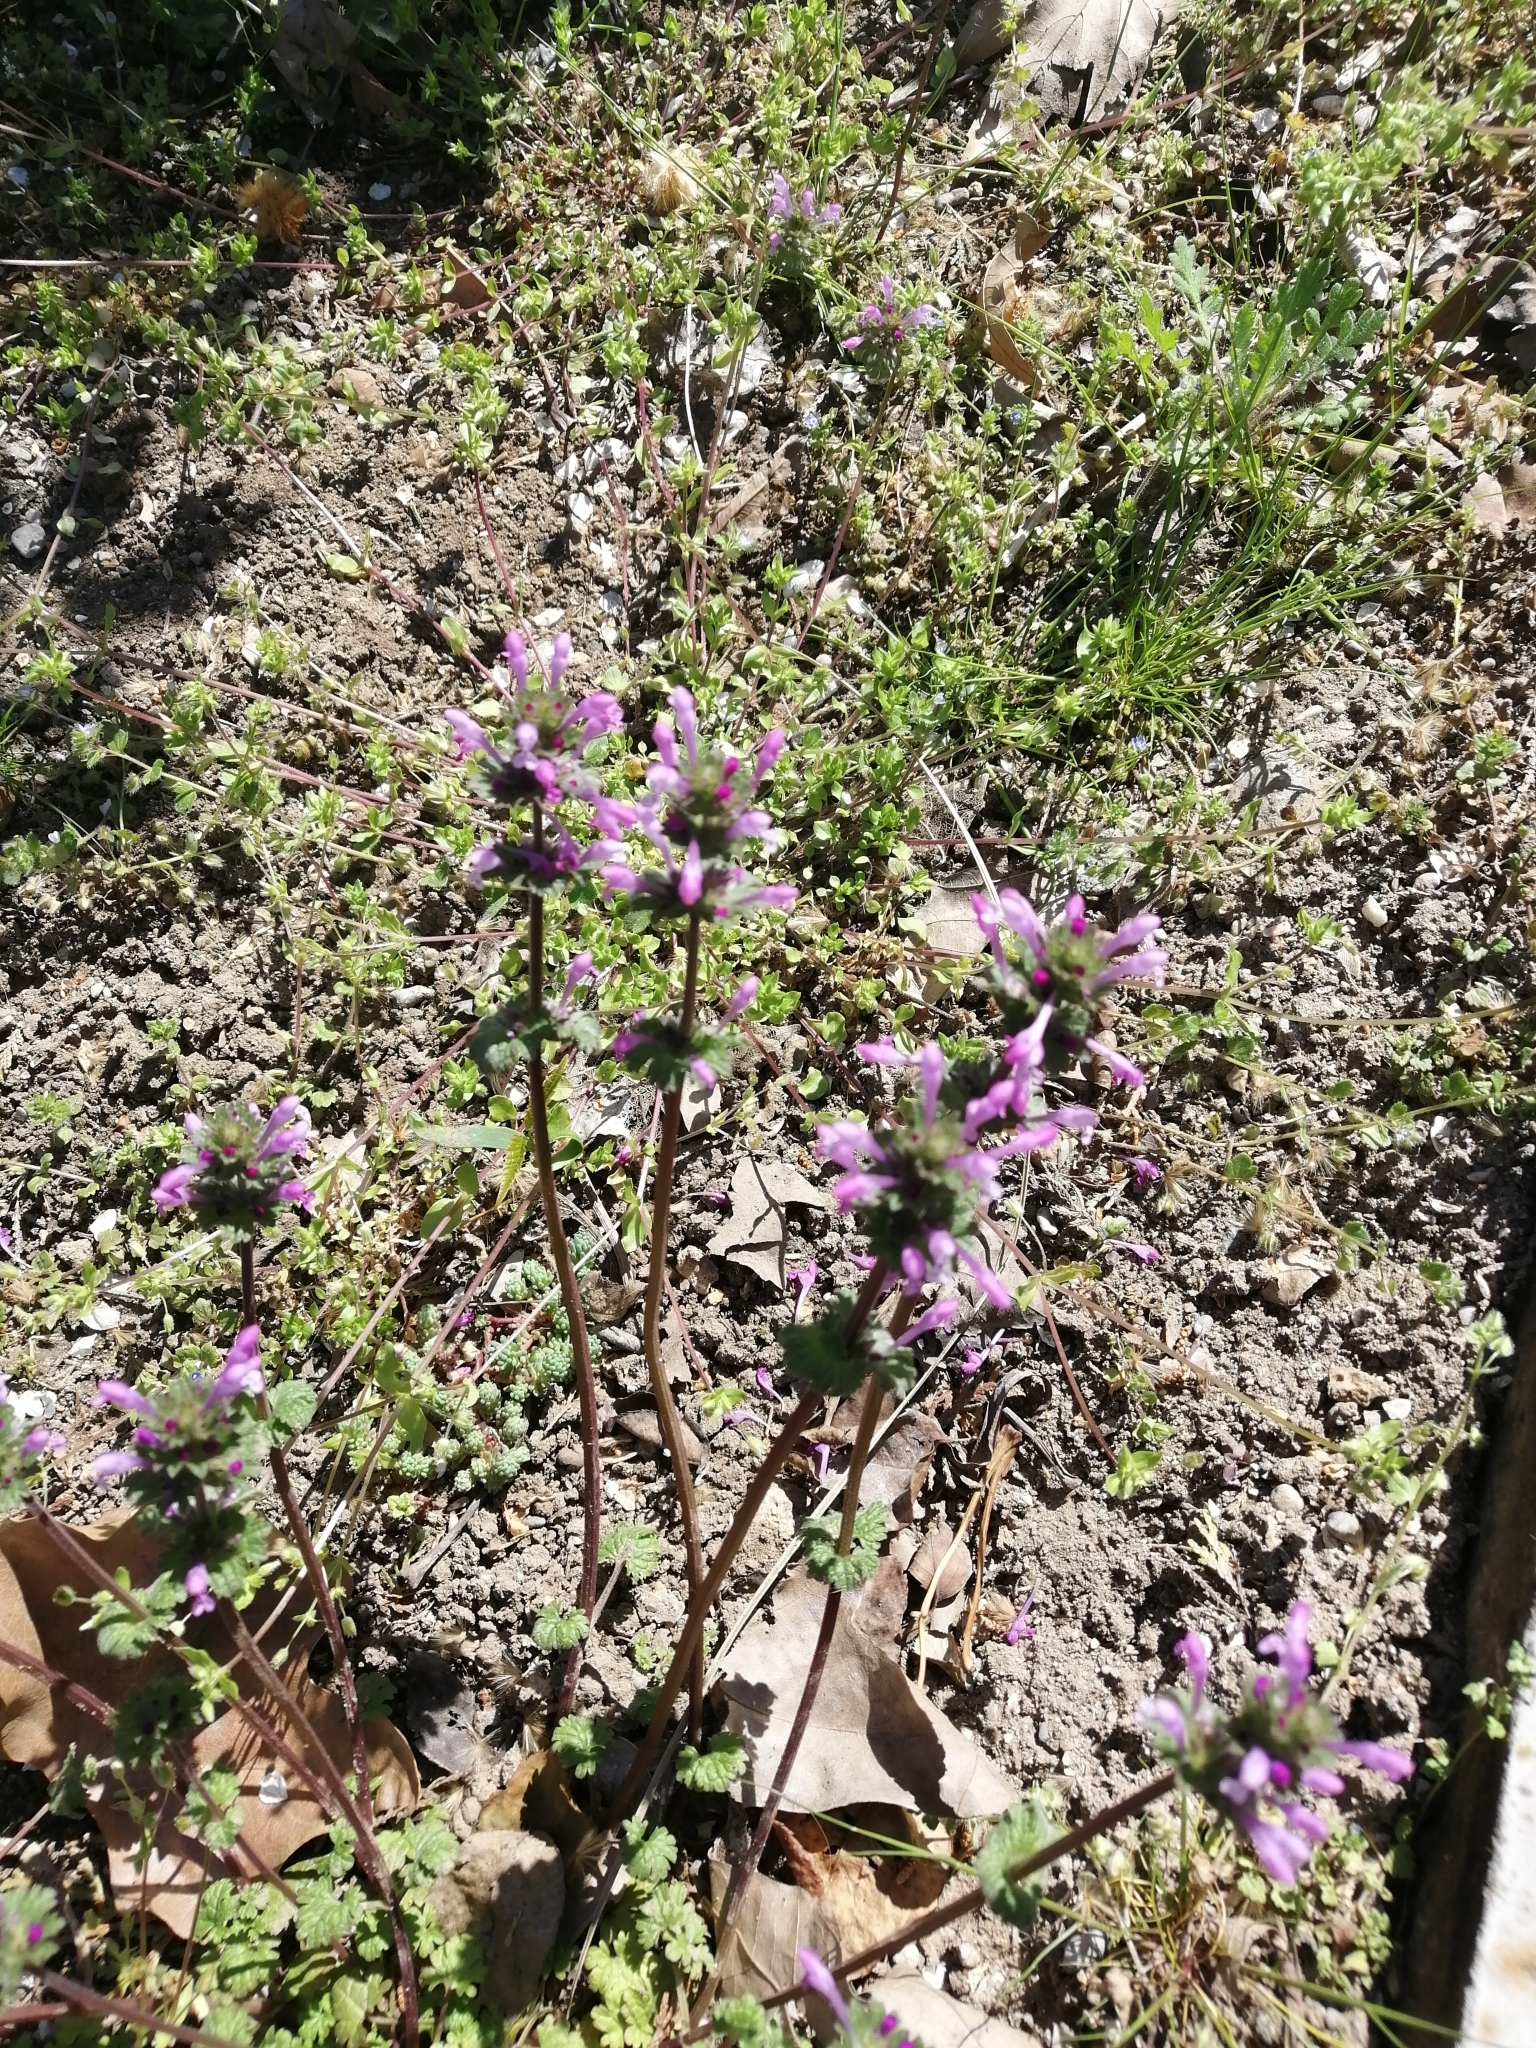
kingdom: Plantae
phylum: Tracheophyta
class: Magnoliopsida
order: Lamiales
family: Lamiaceae
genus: Lamium
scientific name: Lamium amplexicaule
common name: Henbit dead-nettle
